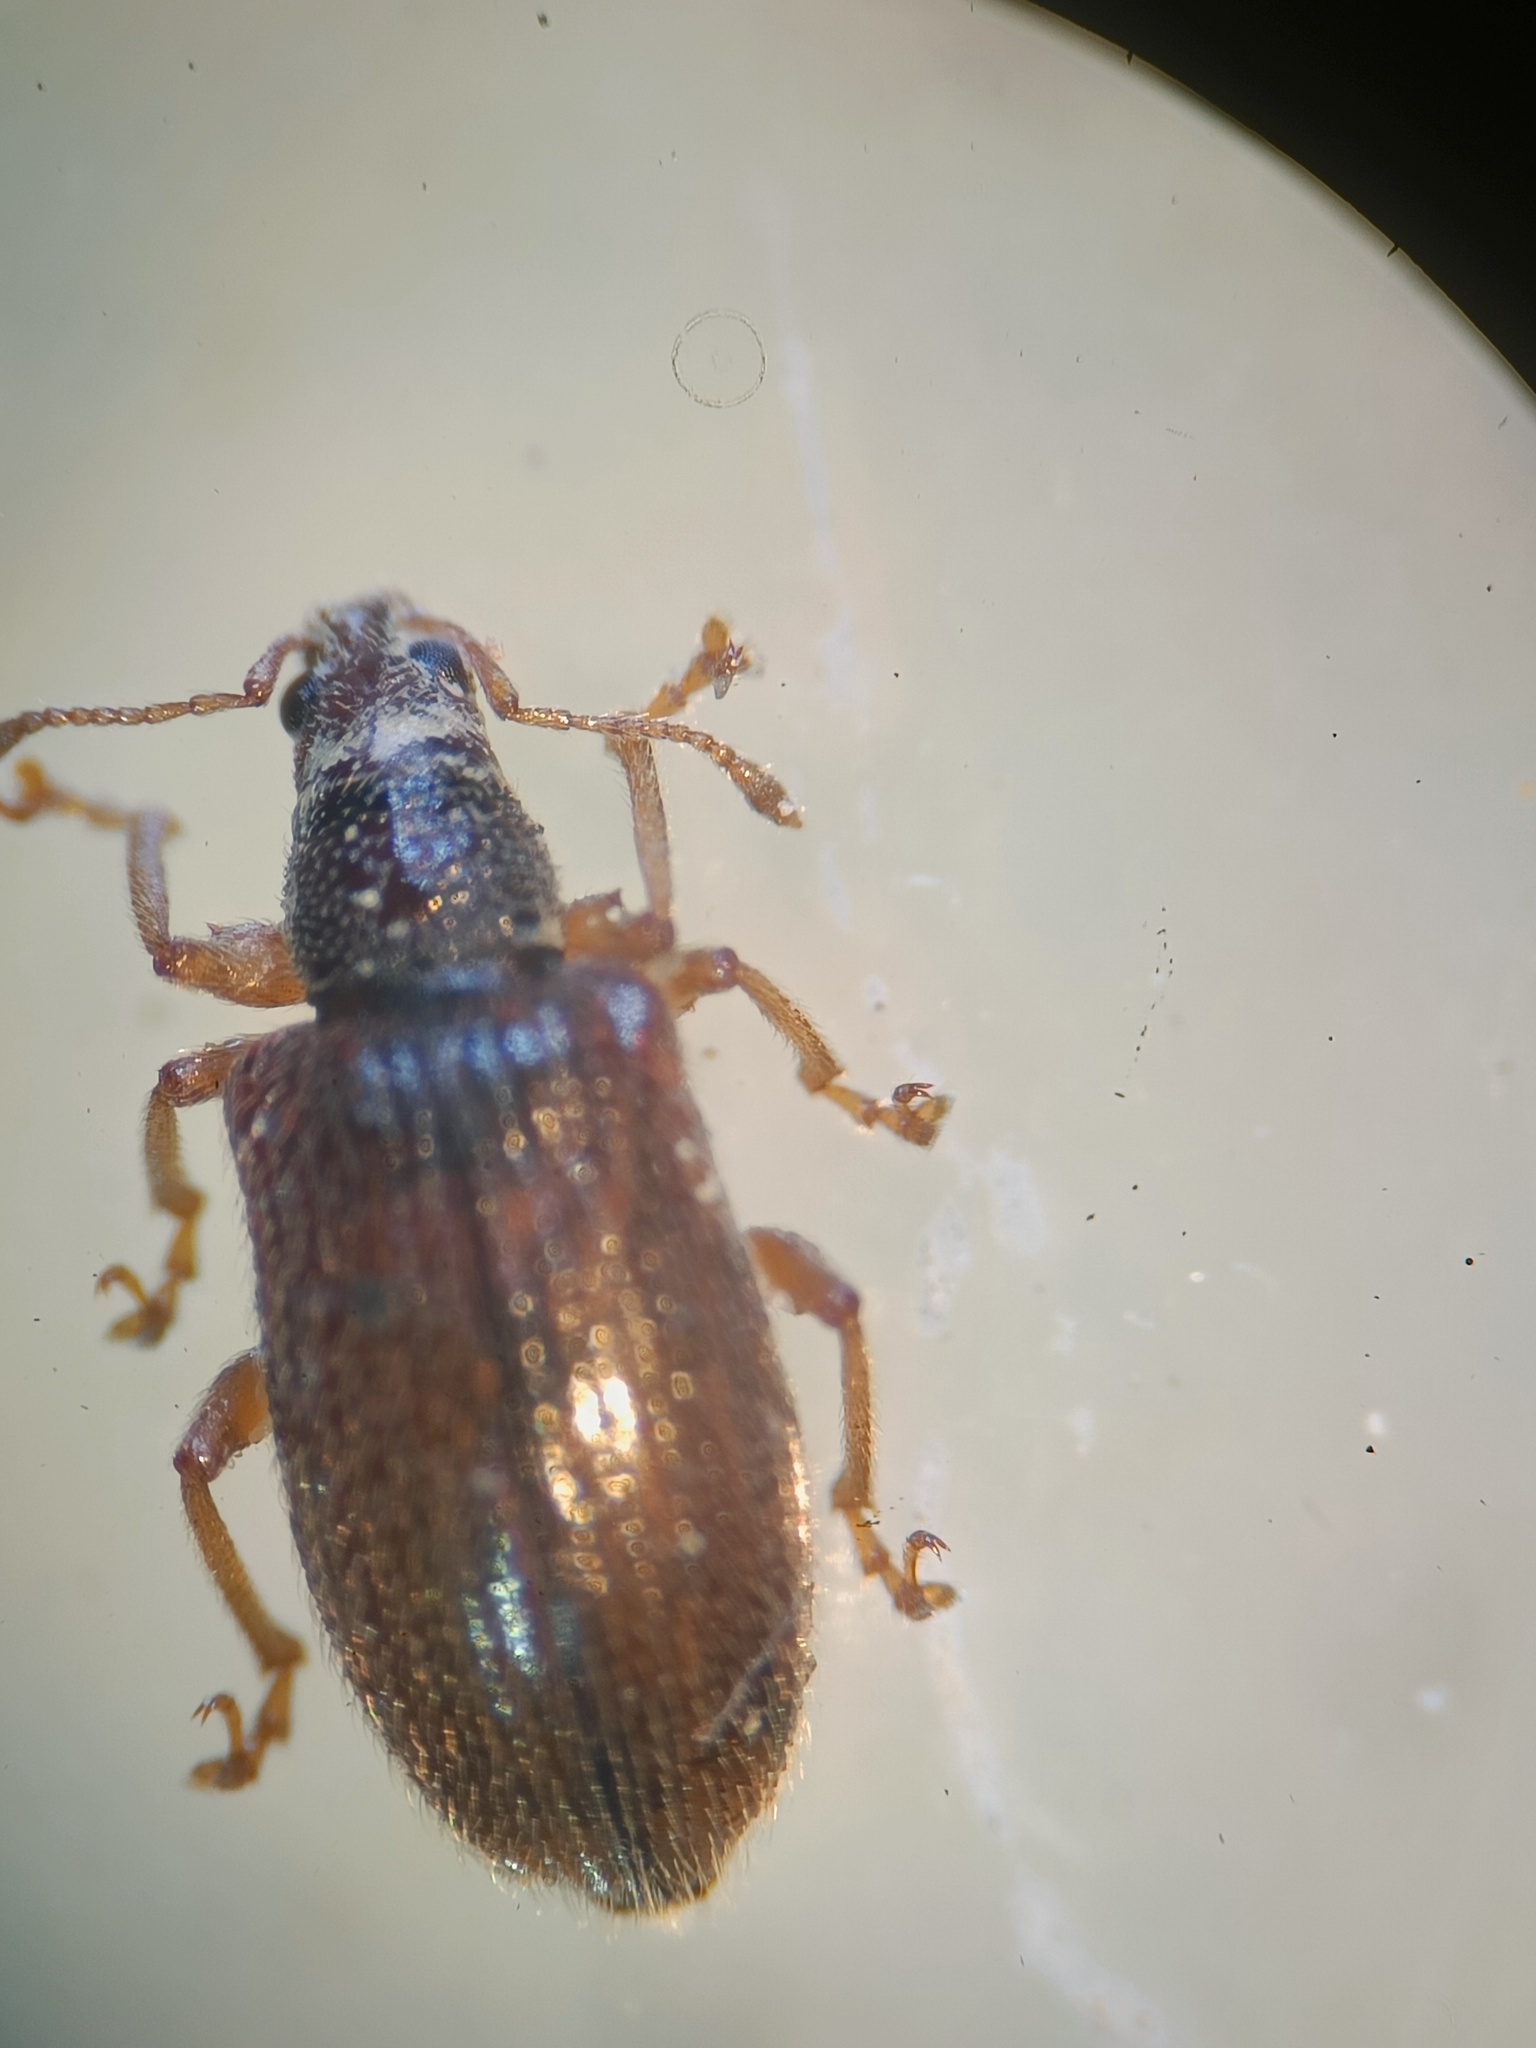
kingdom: Animalia
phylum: Arthropoda
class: Insecta
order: Coleoptera
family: Curculionidae
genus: Phyllobius
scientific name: Phyllobius oblongus
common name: Brown leaf weevil
